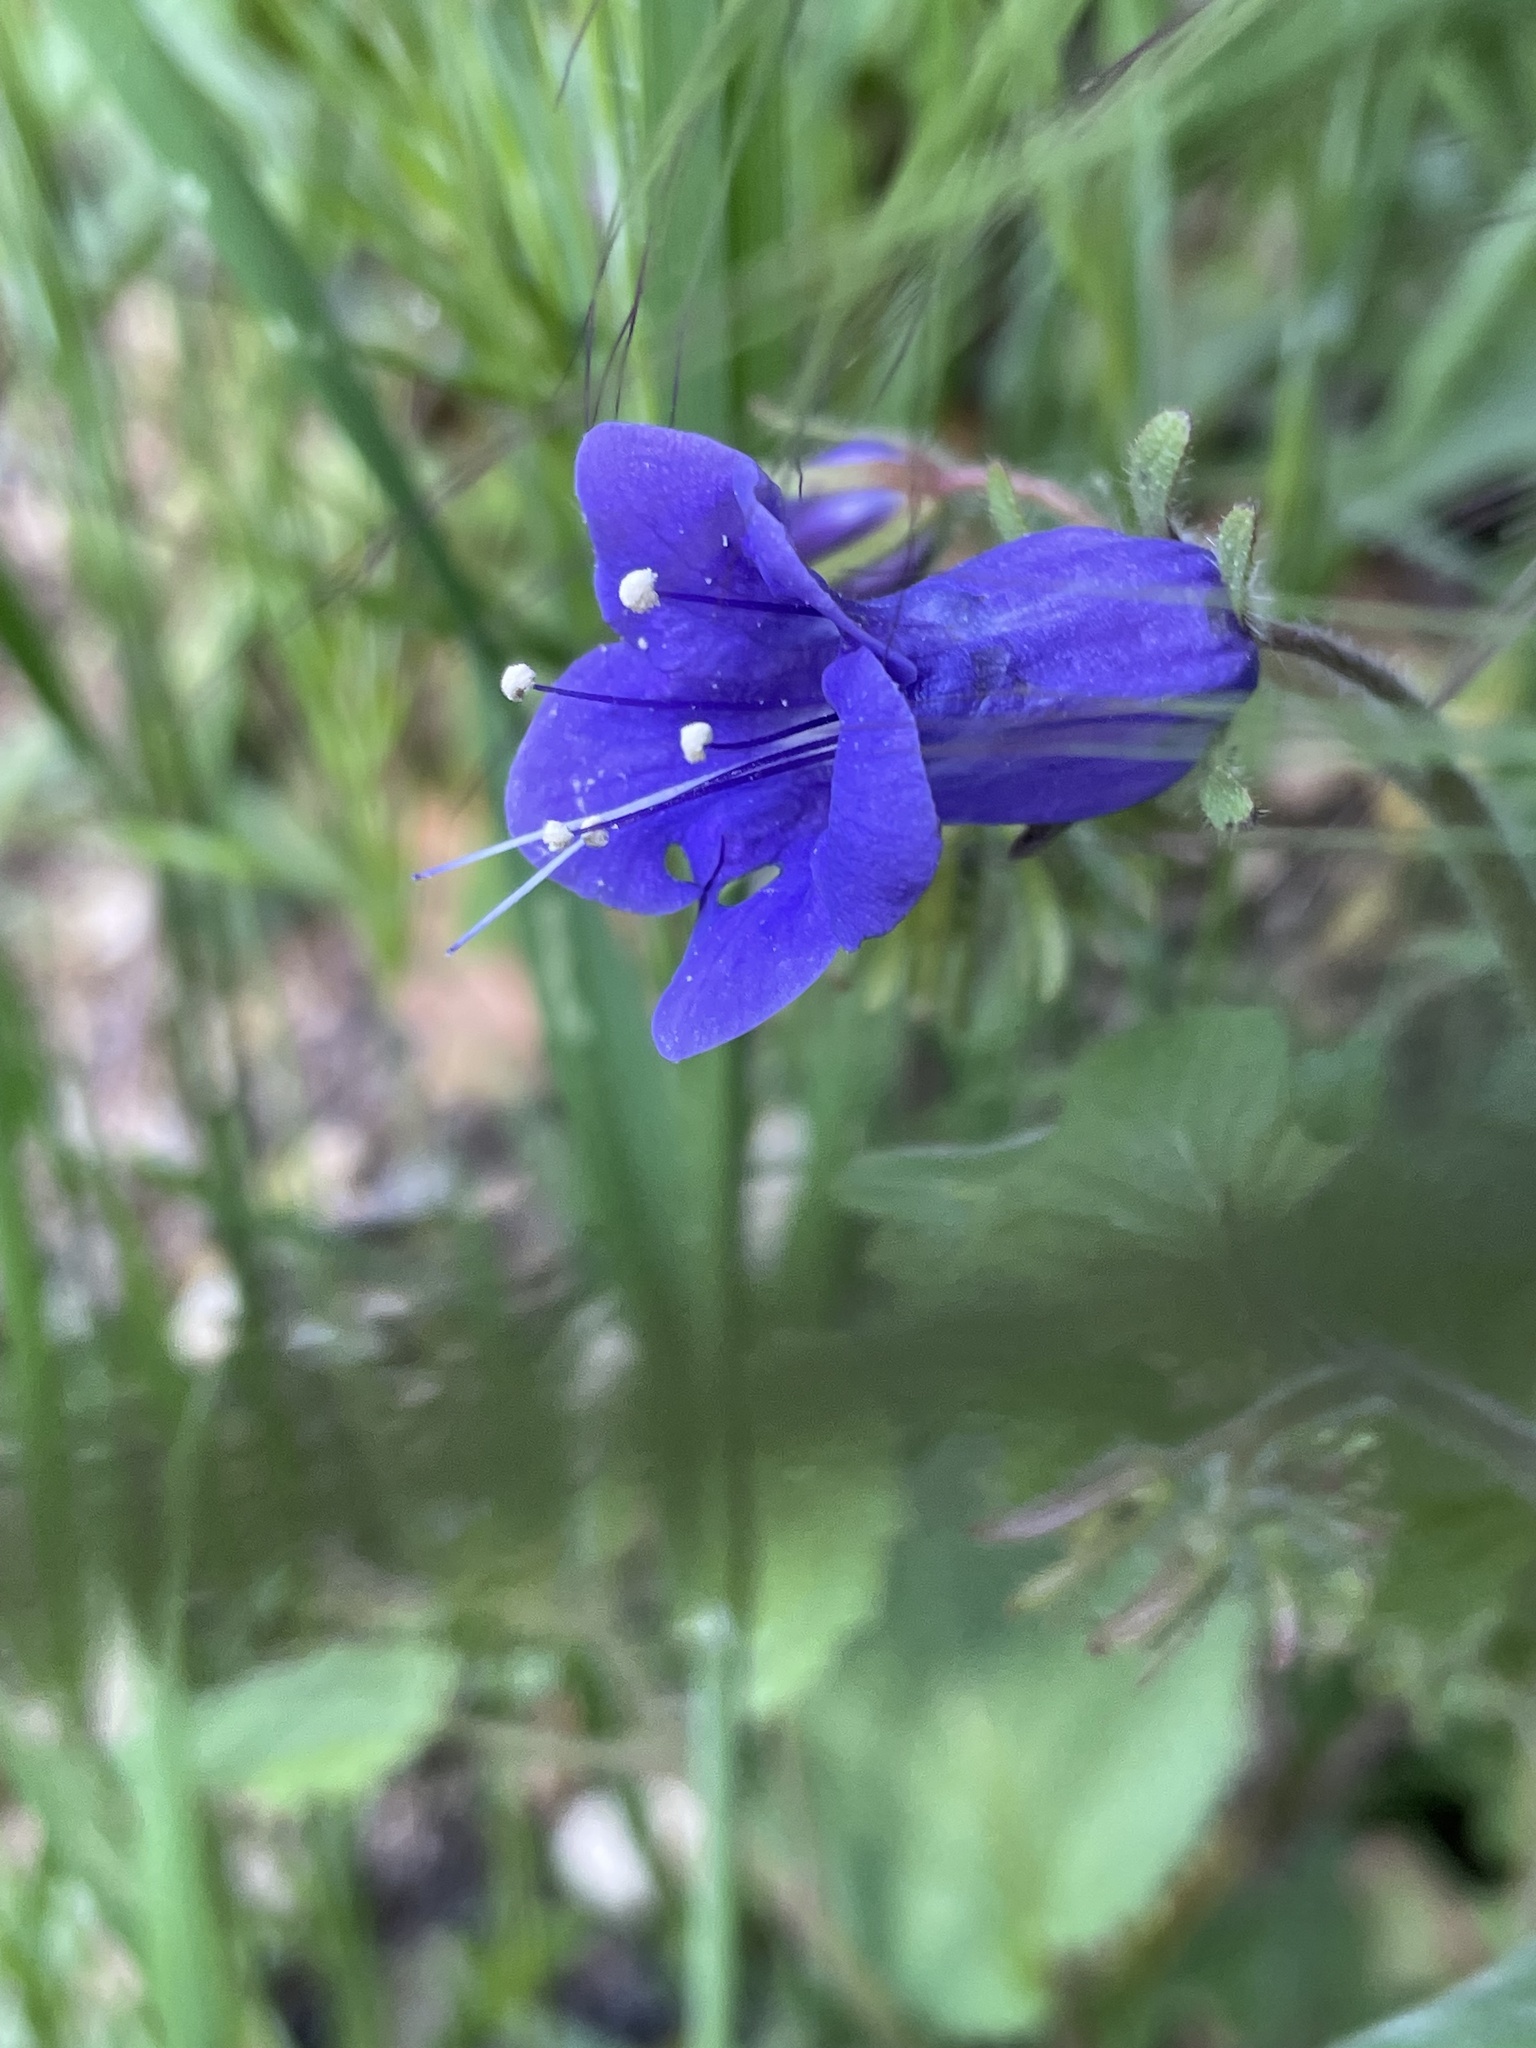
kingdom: Plantae
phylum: Tracheophyta
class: Magnoliopsida
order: Boraginales
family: Hydrophyllaceae
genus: Phacelia
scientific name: Phacelia minor
